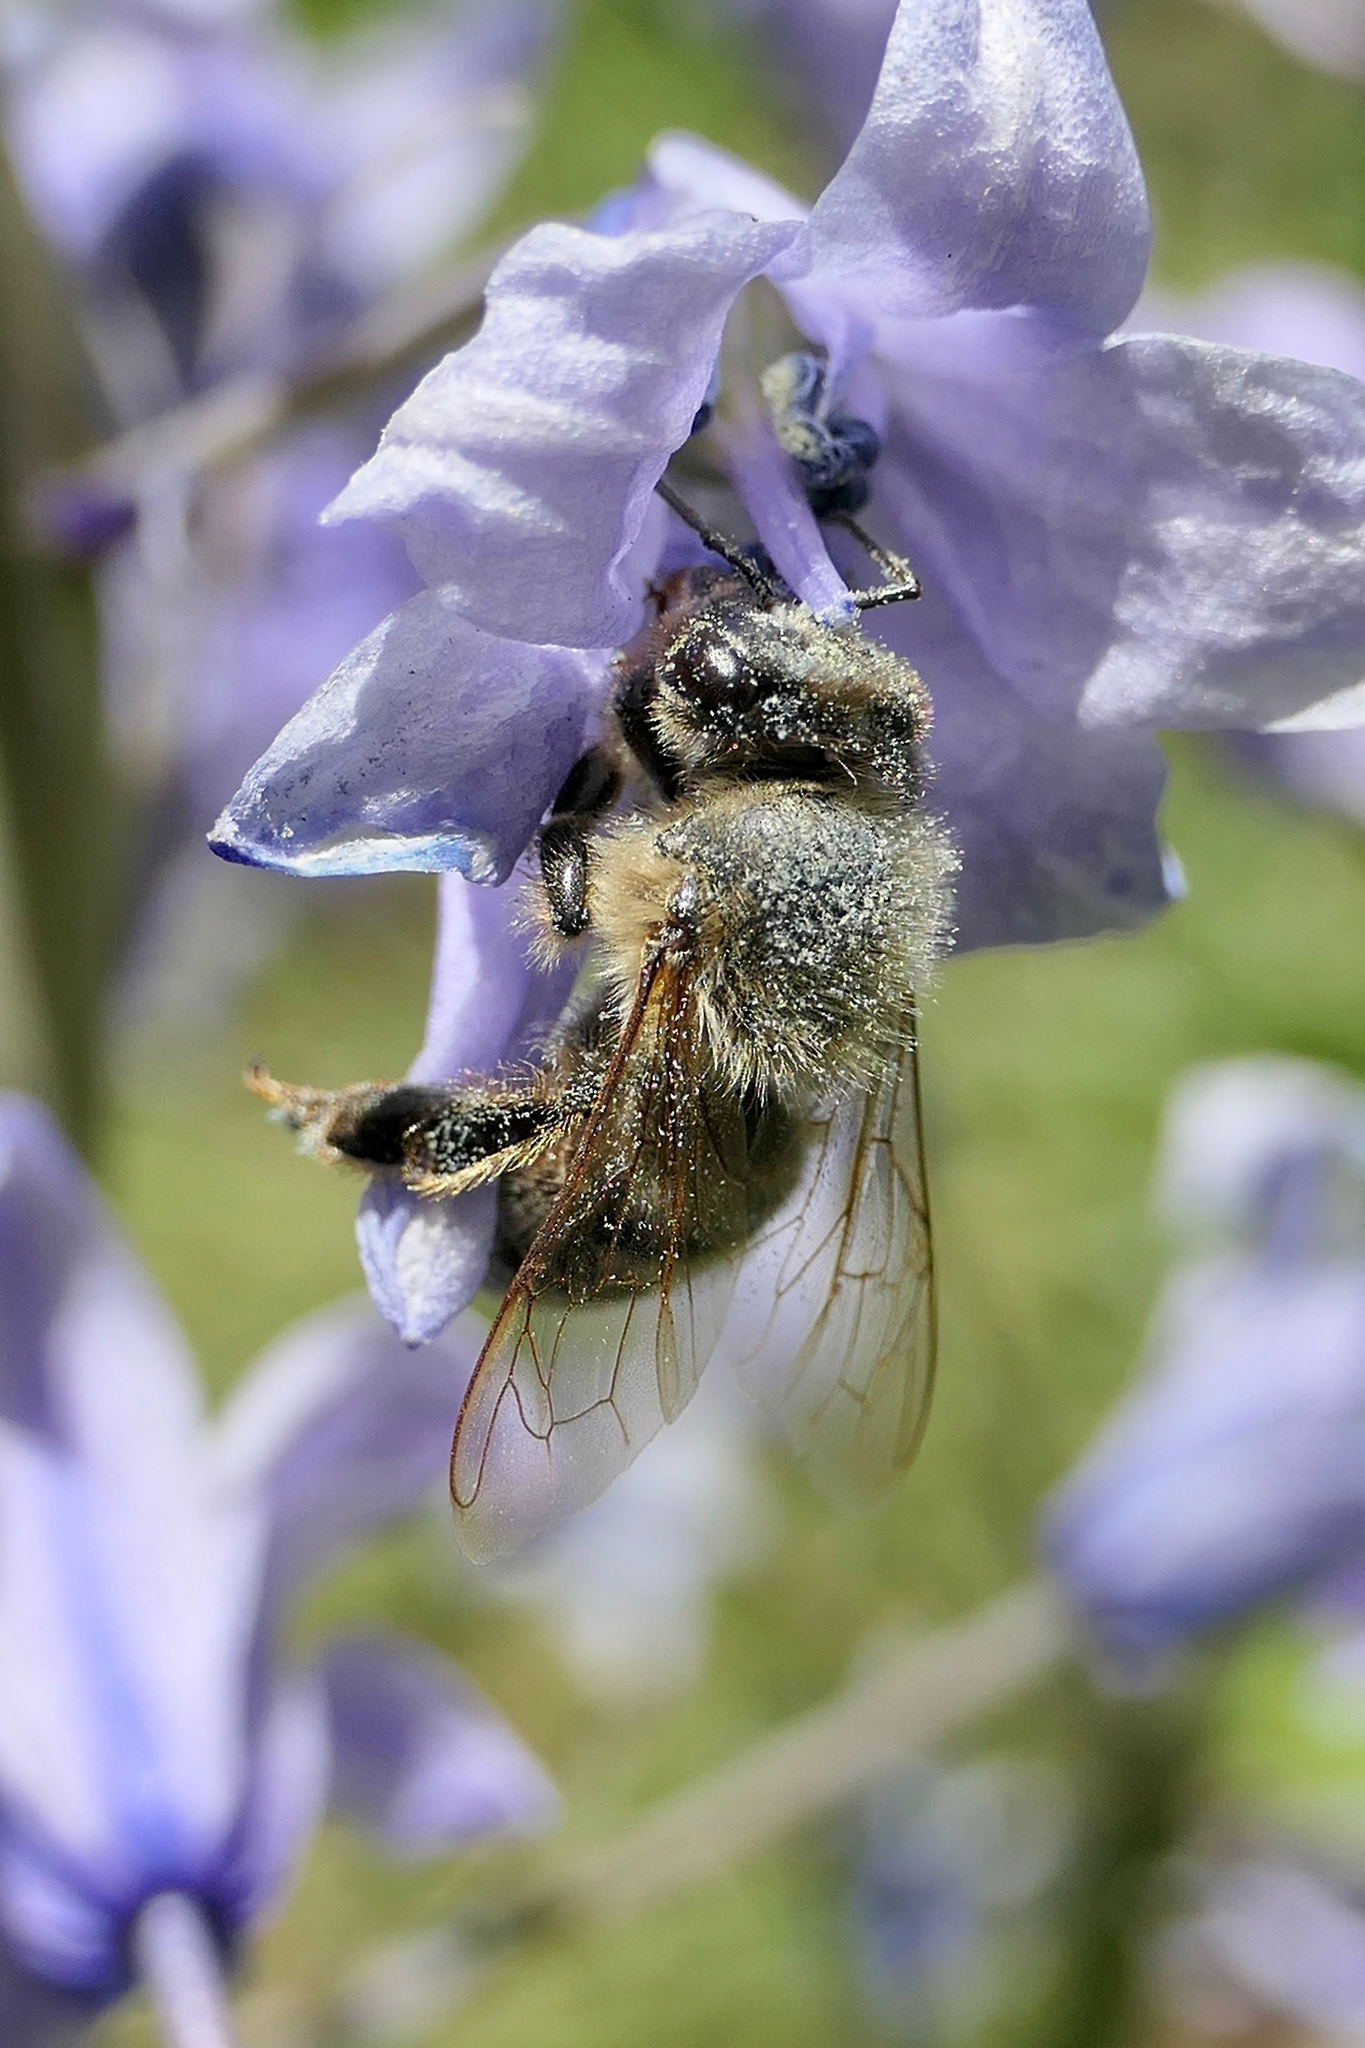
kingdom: Animalia
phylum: Arthropoda
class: Insecta
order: Hymenoptera
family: Apidae
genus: Apis
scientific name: Apis mellifera
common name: Honey bee
